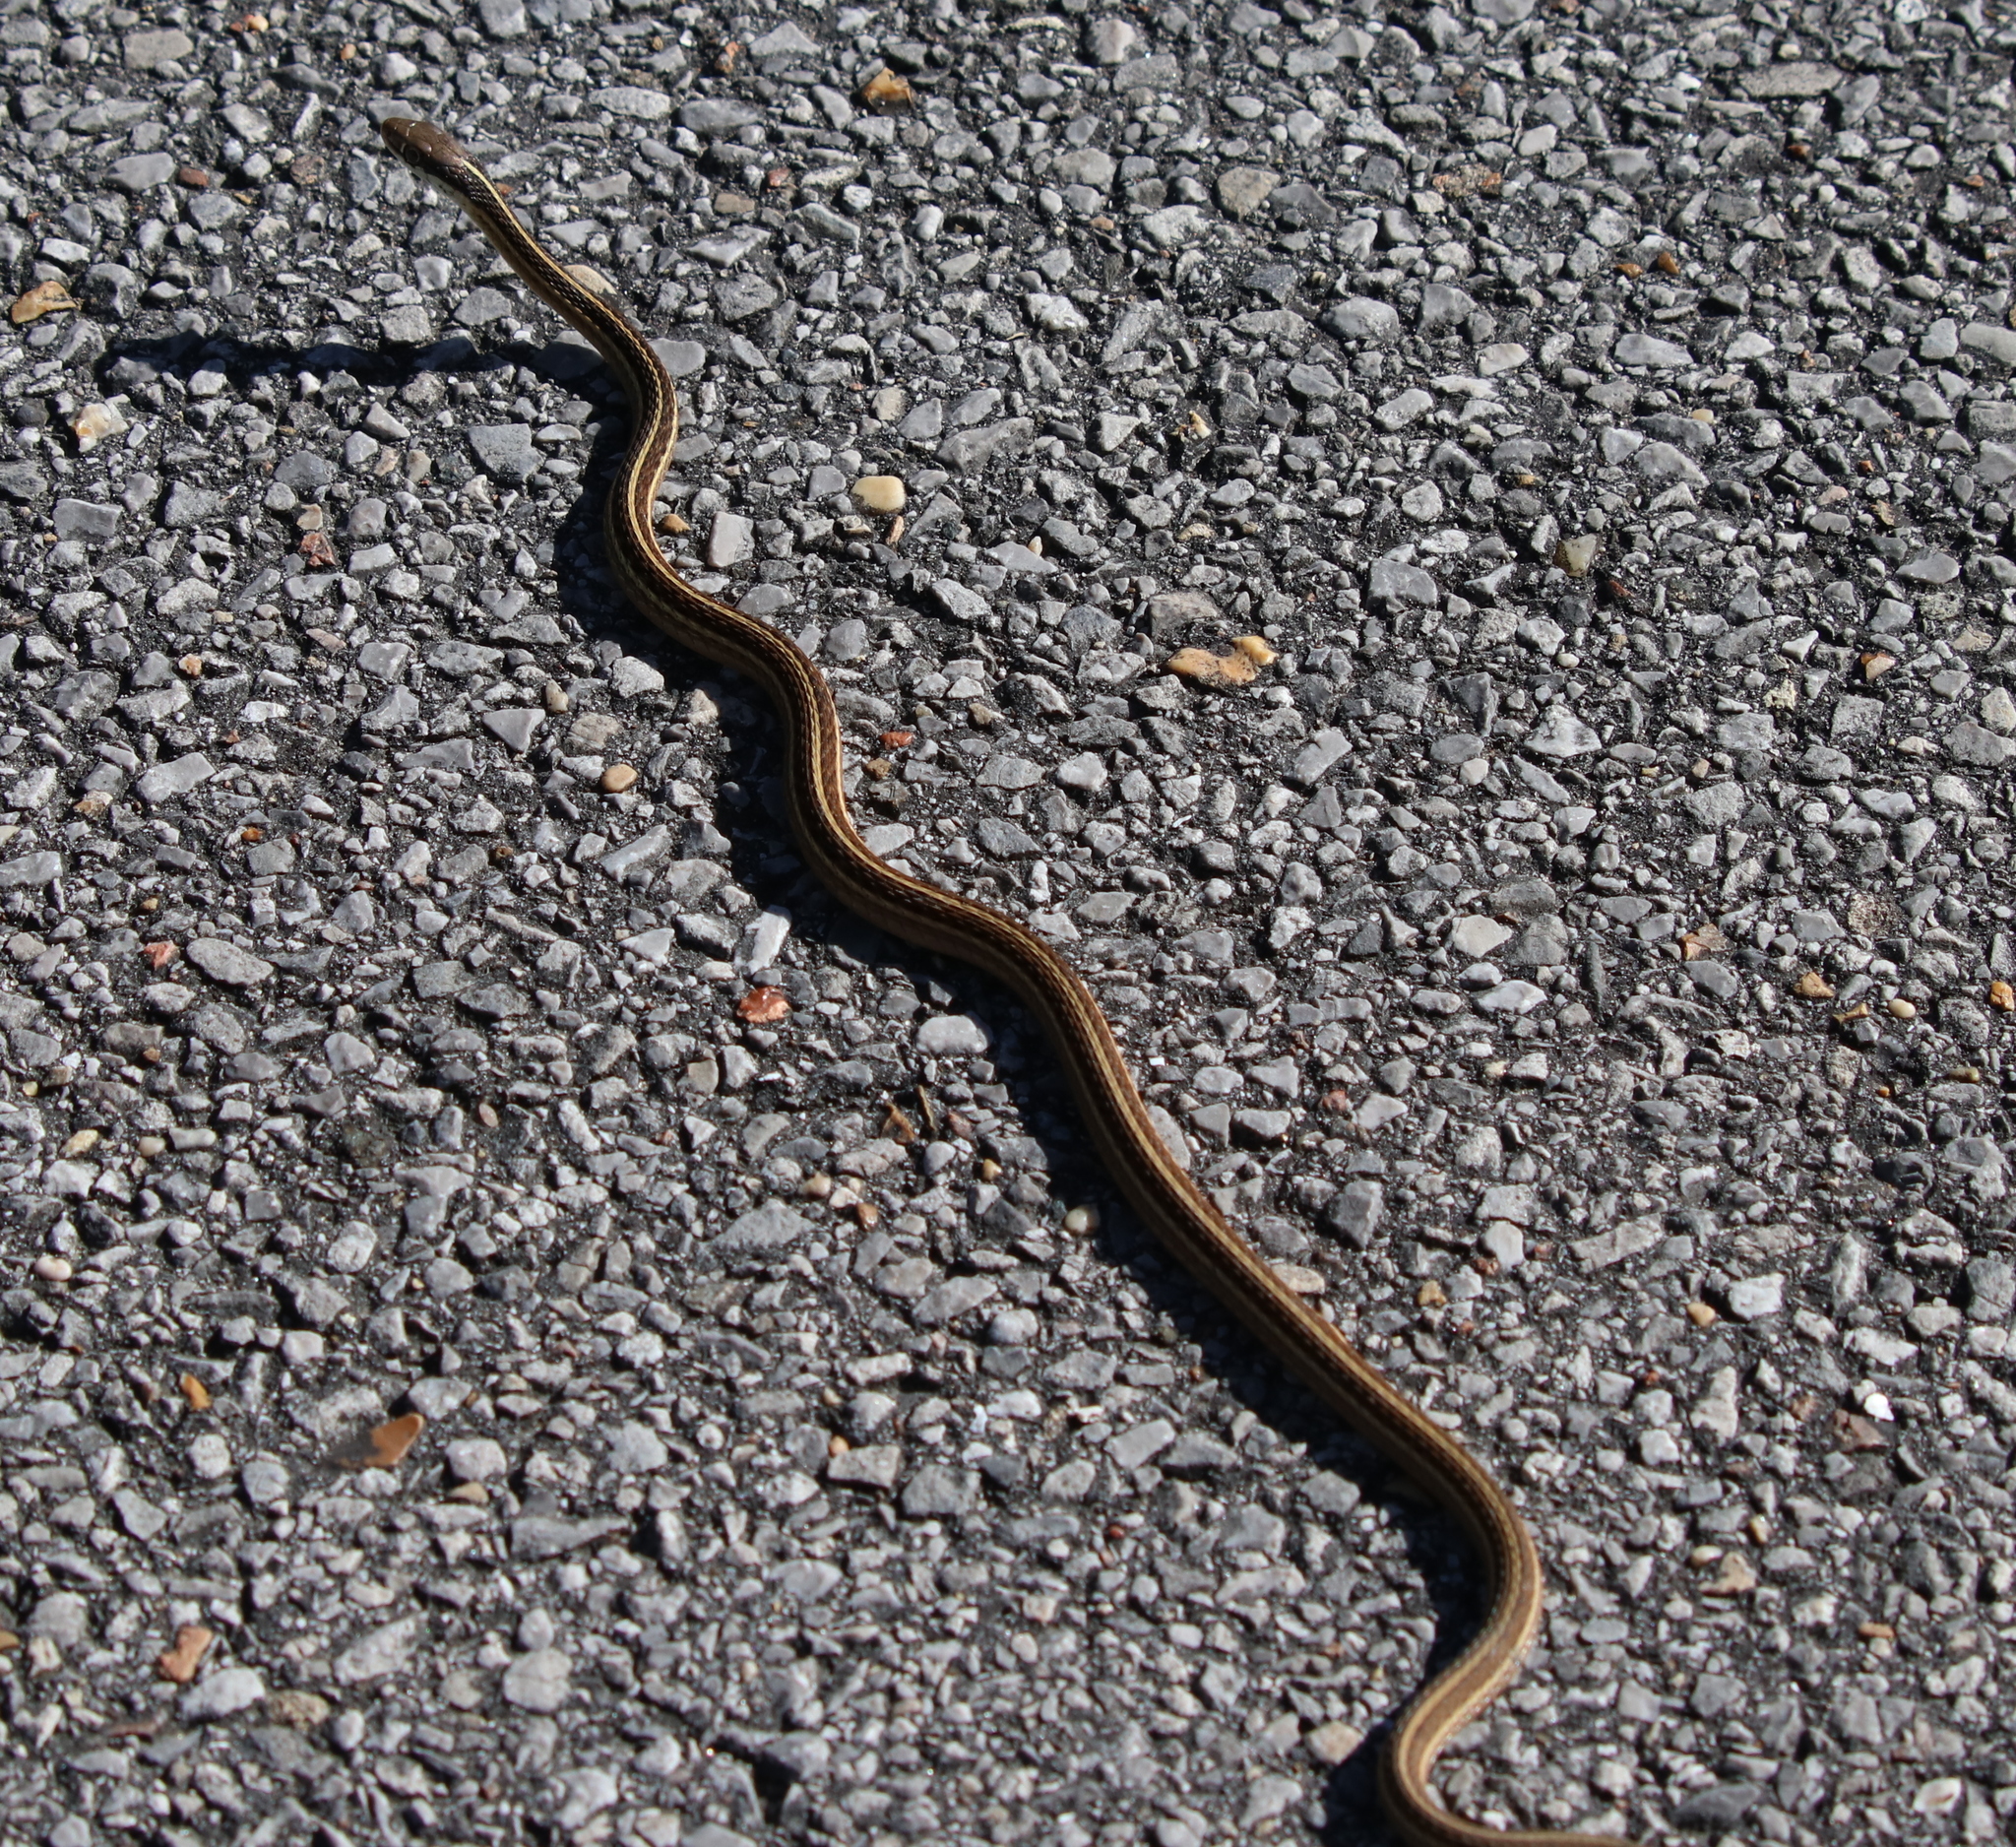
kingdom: Animalia
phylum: Chordata
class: Squamata
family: Colubridae
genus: Thamnophis
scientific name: Thamnophis saurita
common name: Eastern ribbonsnake
